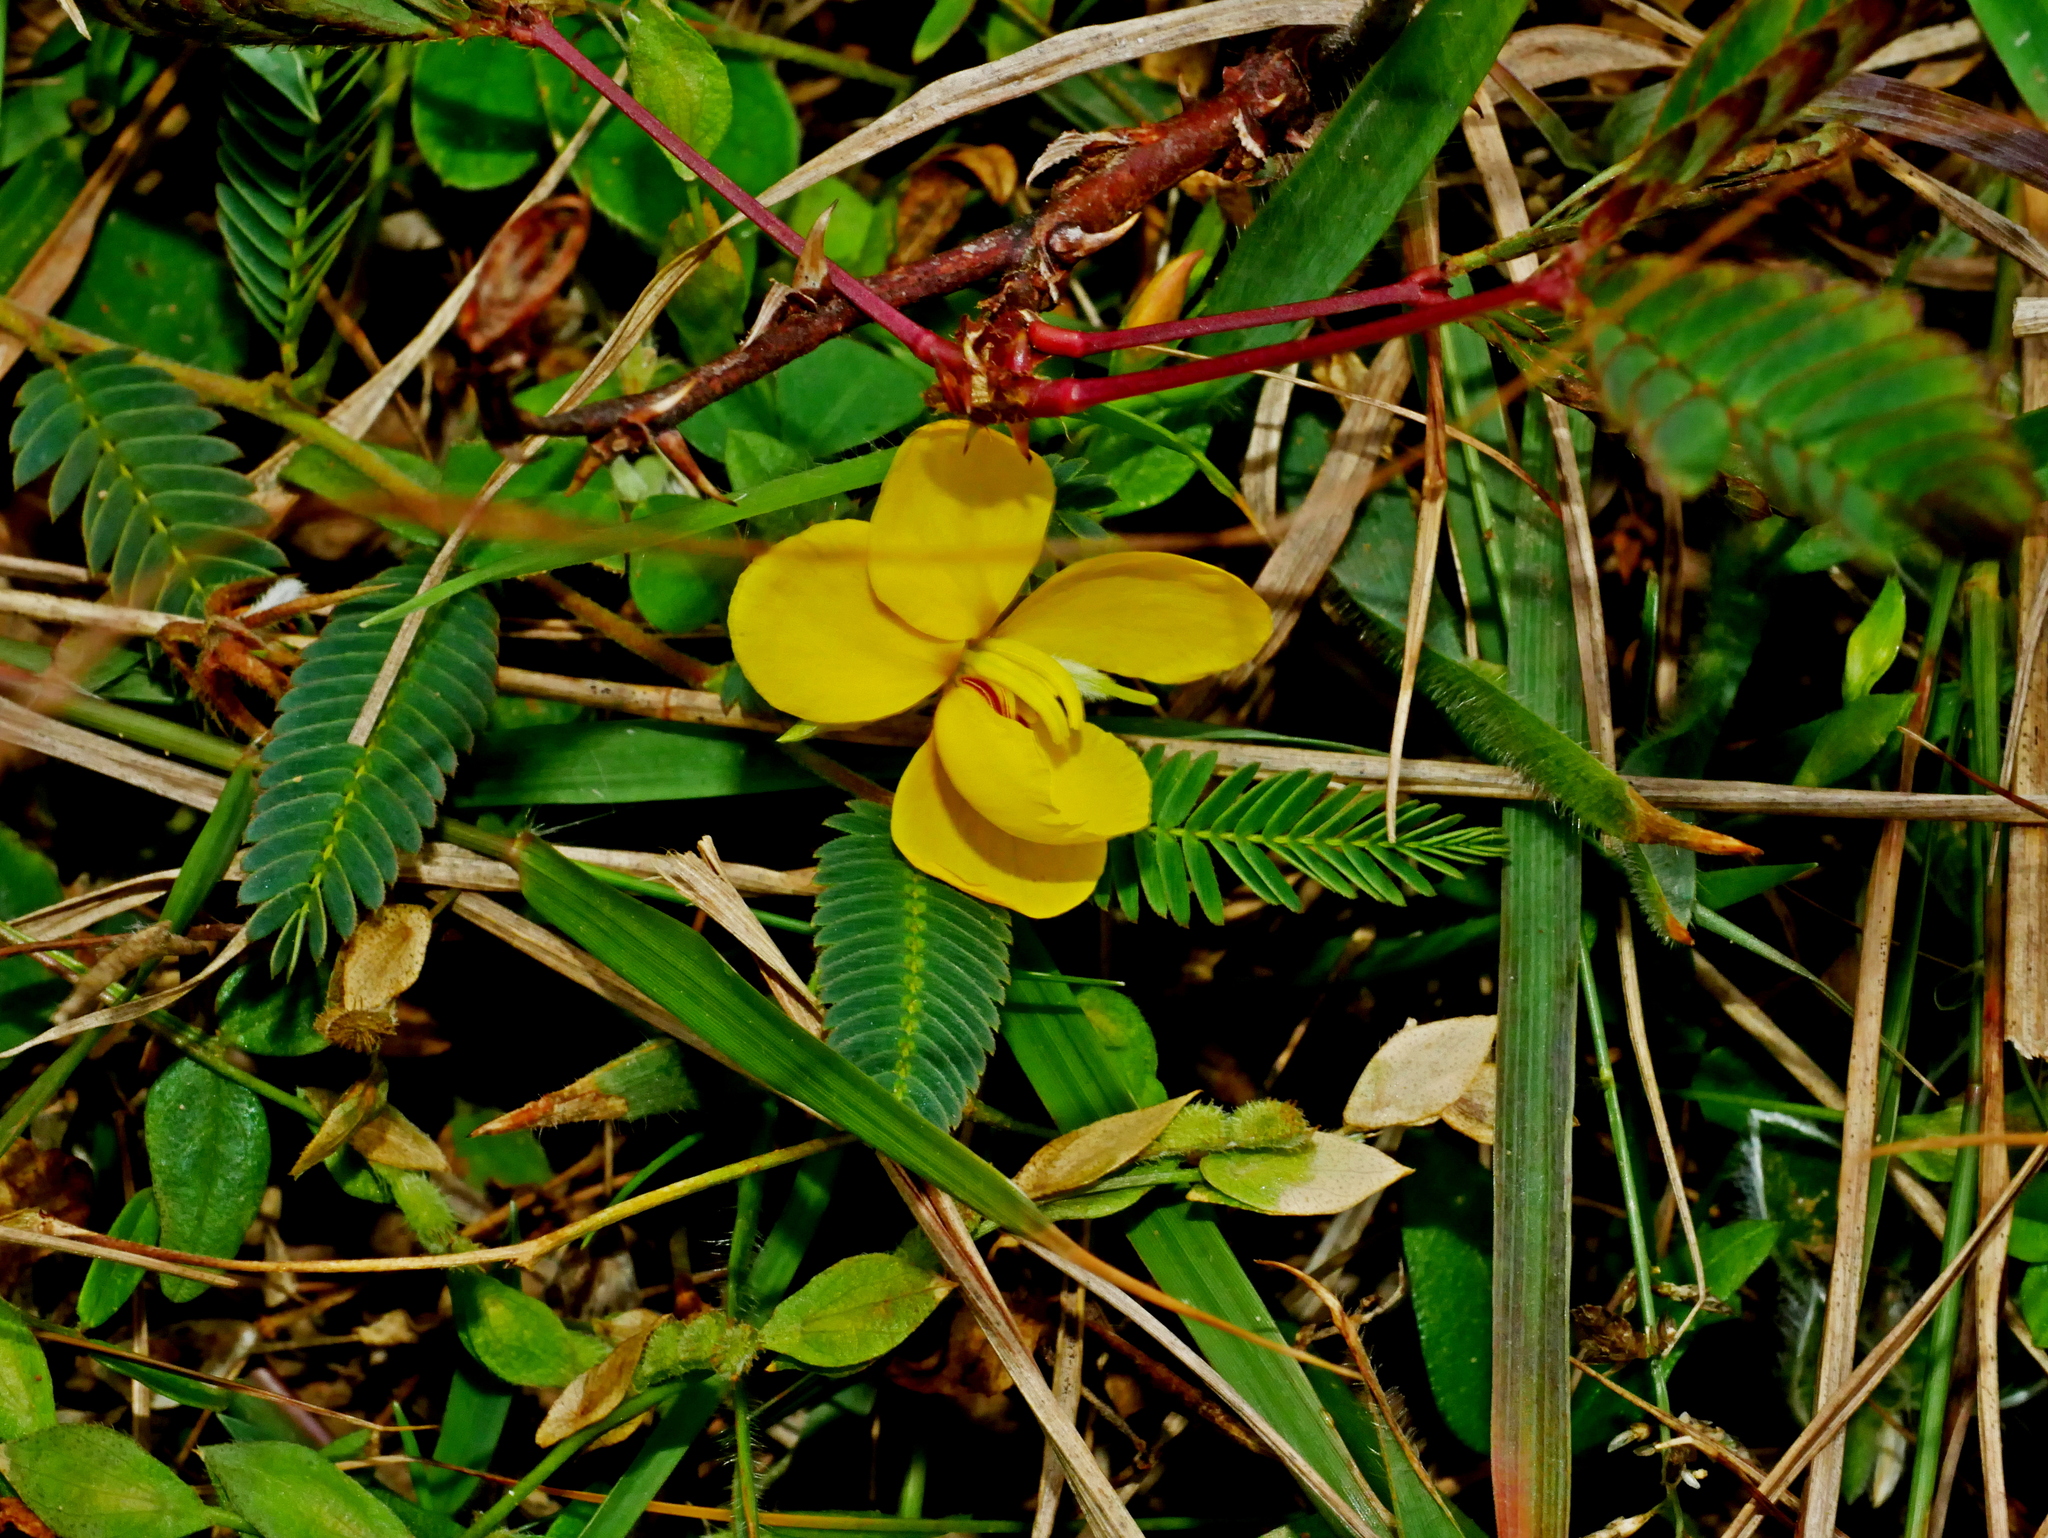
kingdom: Plantae
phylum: Tracheophyta
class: Magnoliopsida
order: Fabales
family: Fabaceae
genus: Chamaecrista
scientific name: Chamaecrista garambiensis
